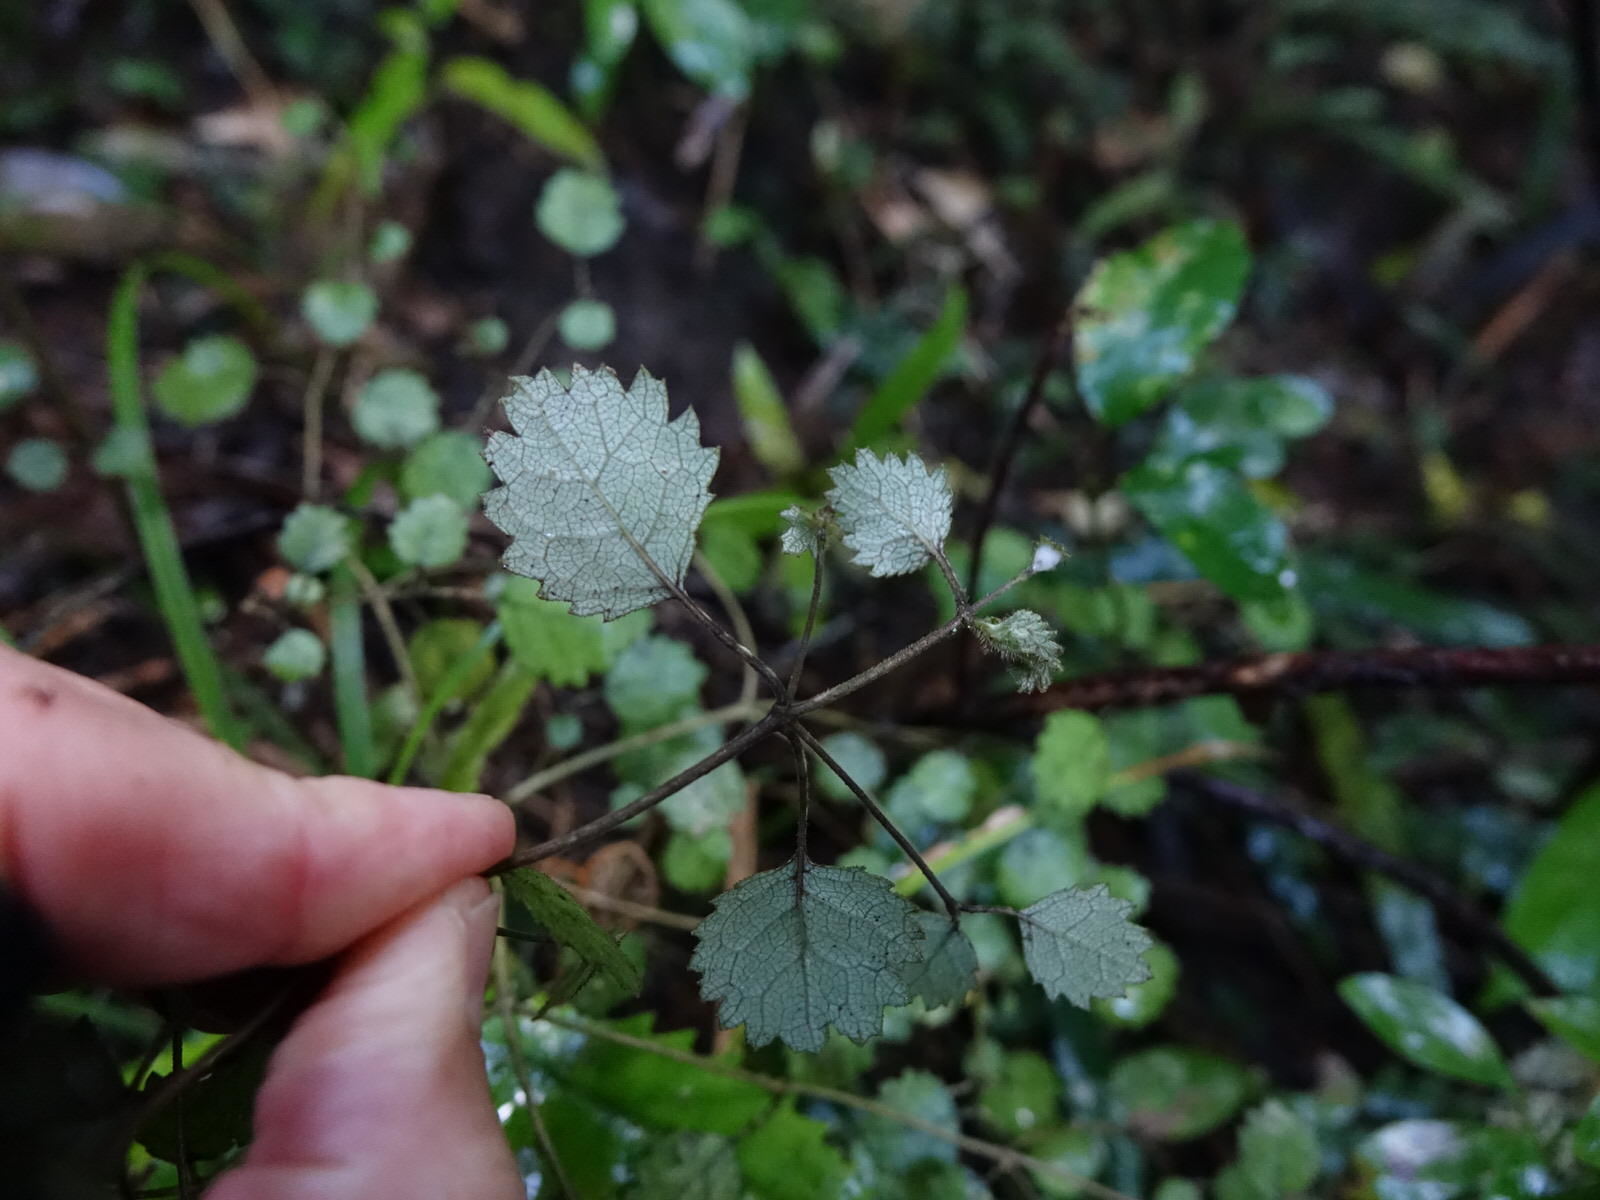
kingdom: Plantae
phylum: Tracheophyta
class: Magnoliopsida
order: Lamiales
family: Gesneriaceae
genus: Rhabdothamnus
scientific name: Rhabdothamnus solandri
